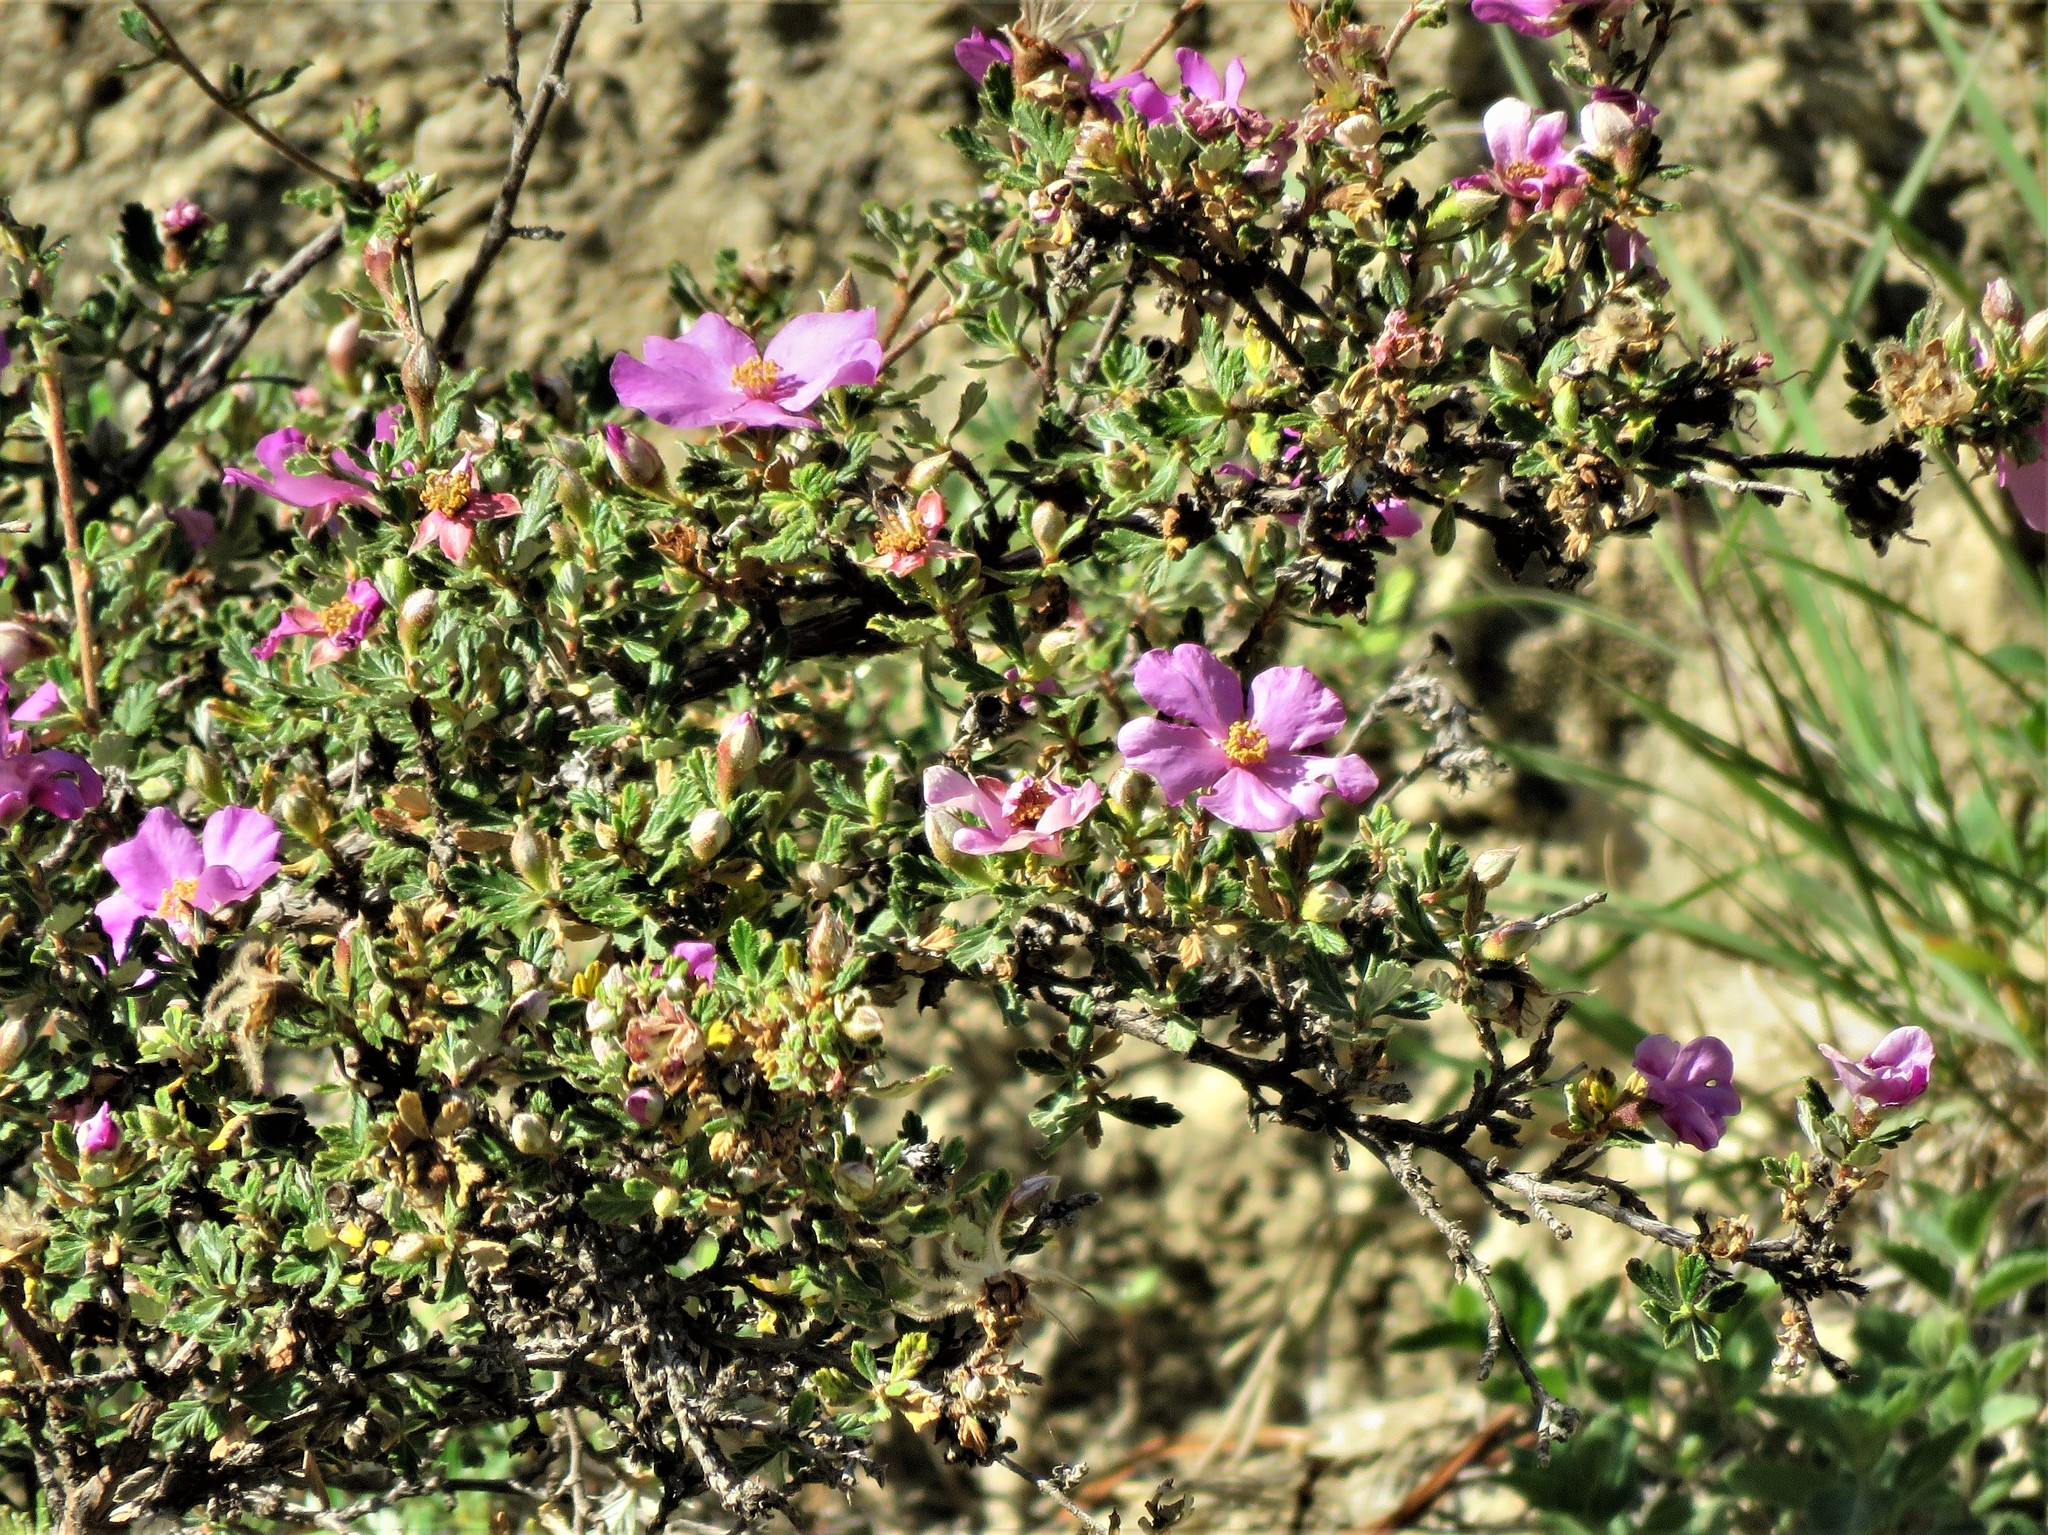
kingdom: Plantae
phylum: Tracheophyta
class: Magnoliopsida
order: Rosales
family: Rosaceae
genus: Purshia
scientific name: Purshia plicata
